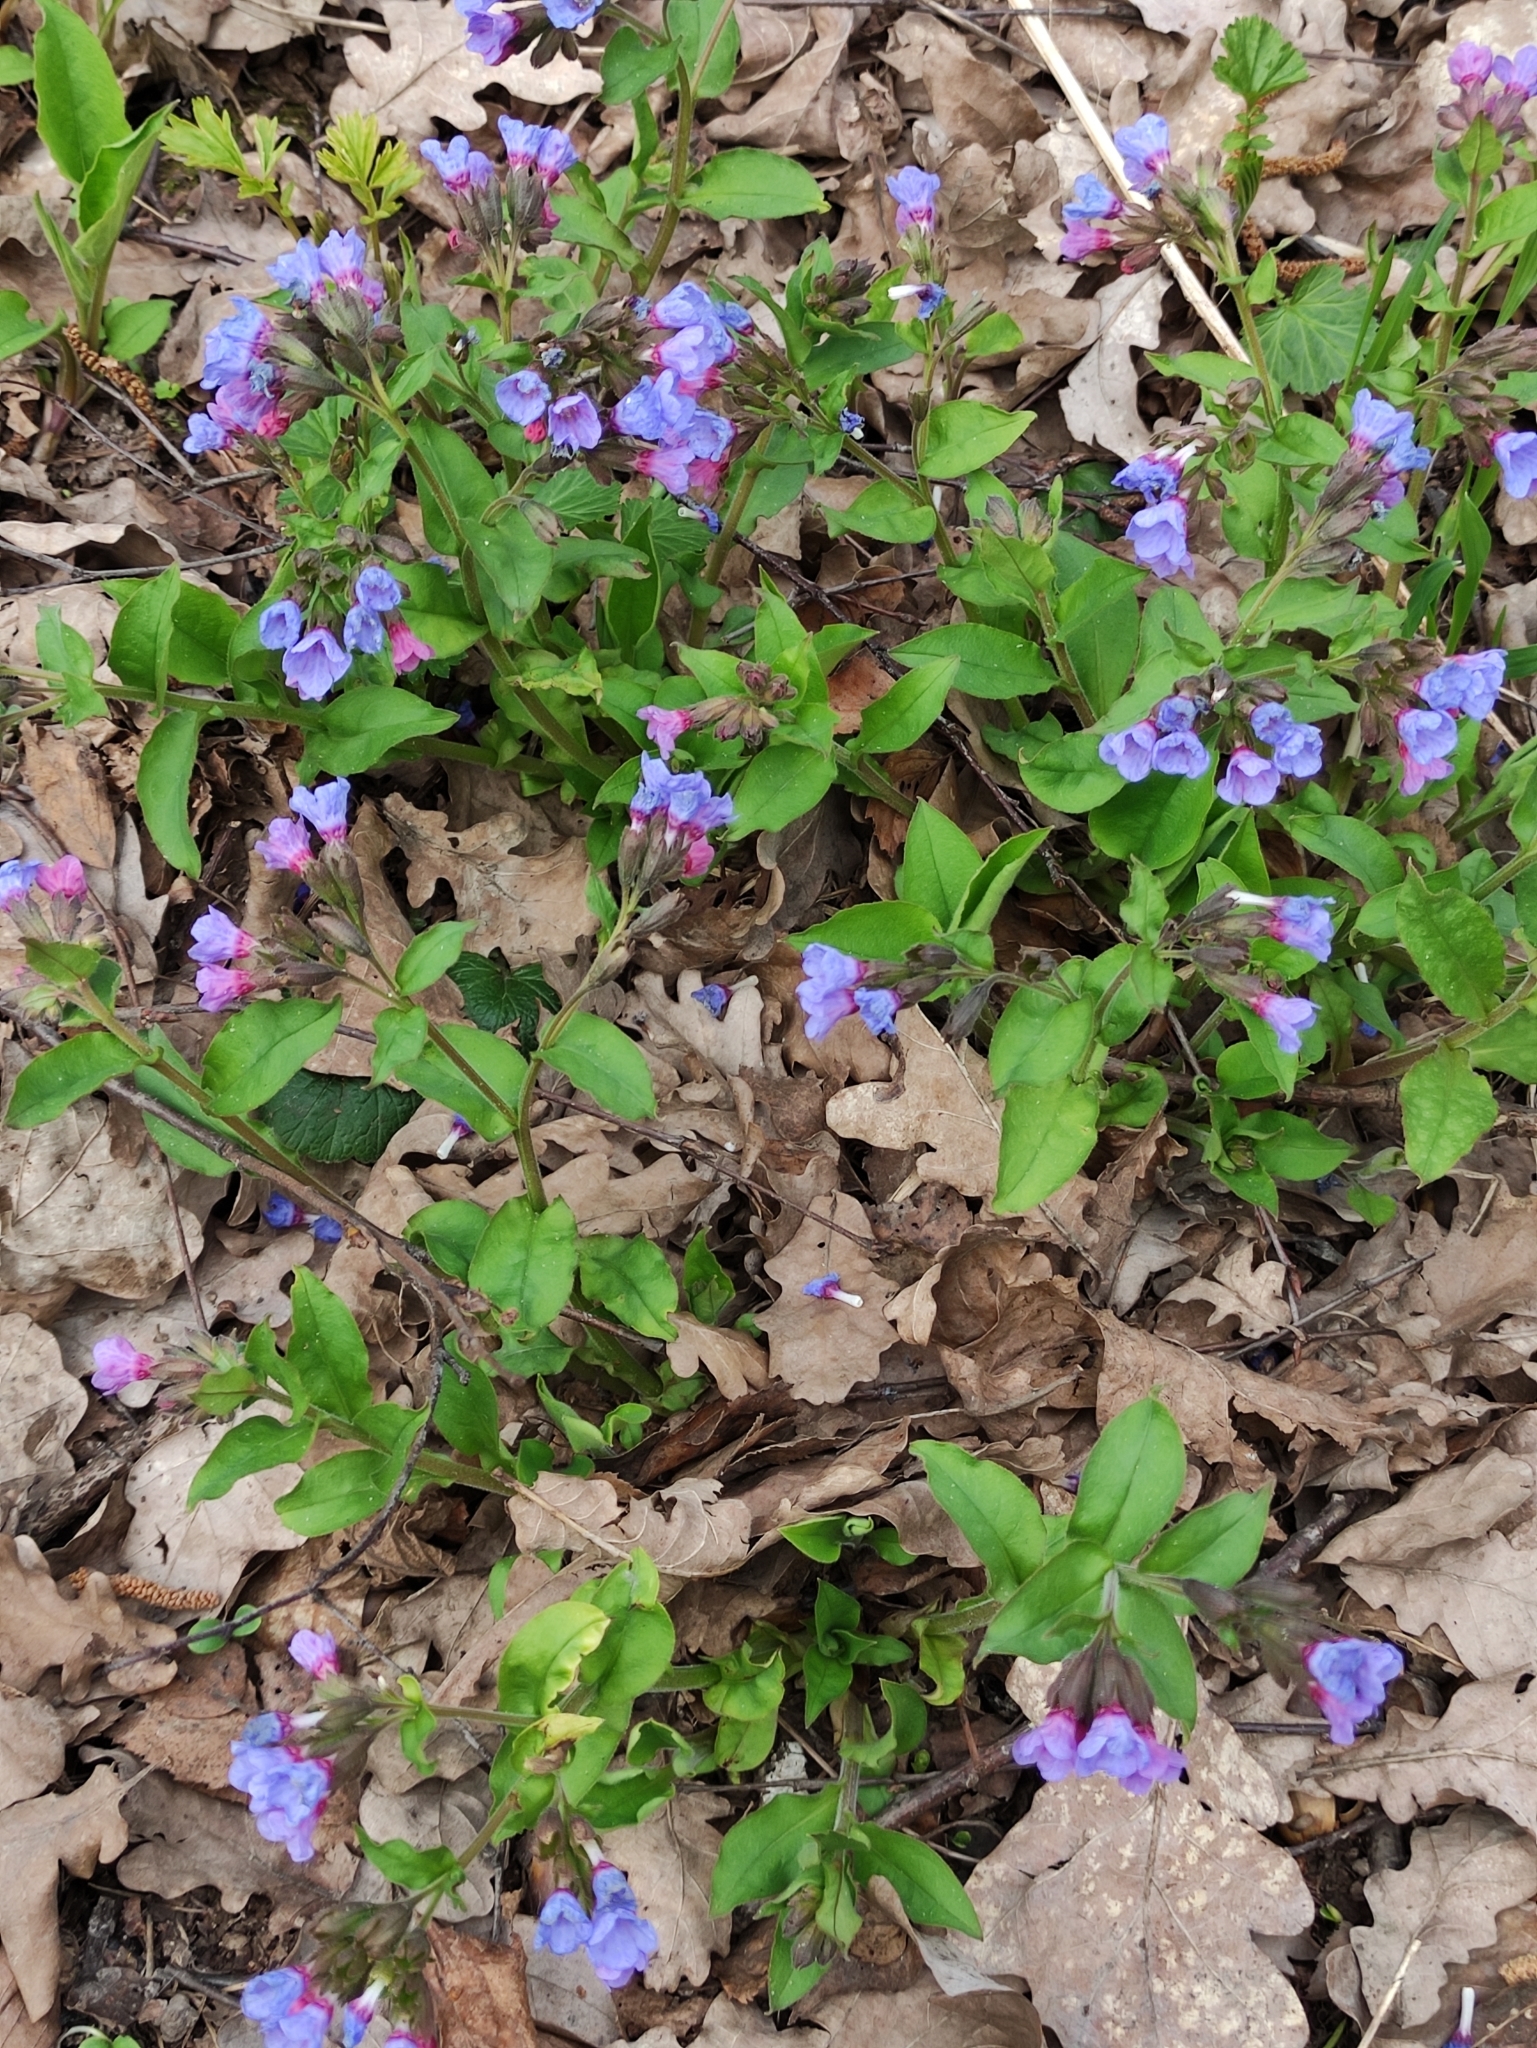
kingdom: Plantae
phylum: Tracheophyta
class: Magnoliopsida
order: Boraginales
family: Boraginaceae
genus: Pulmonaria
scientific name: Pulmonaria obscura
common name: Suffolk lungwort
